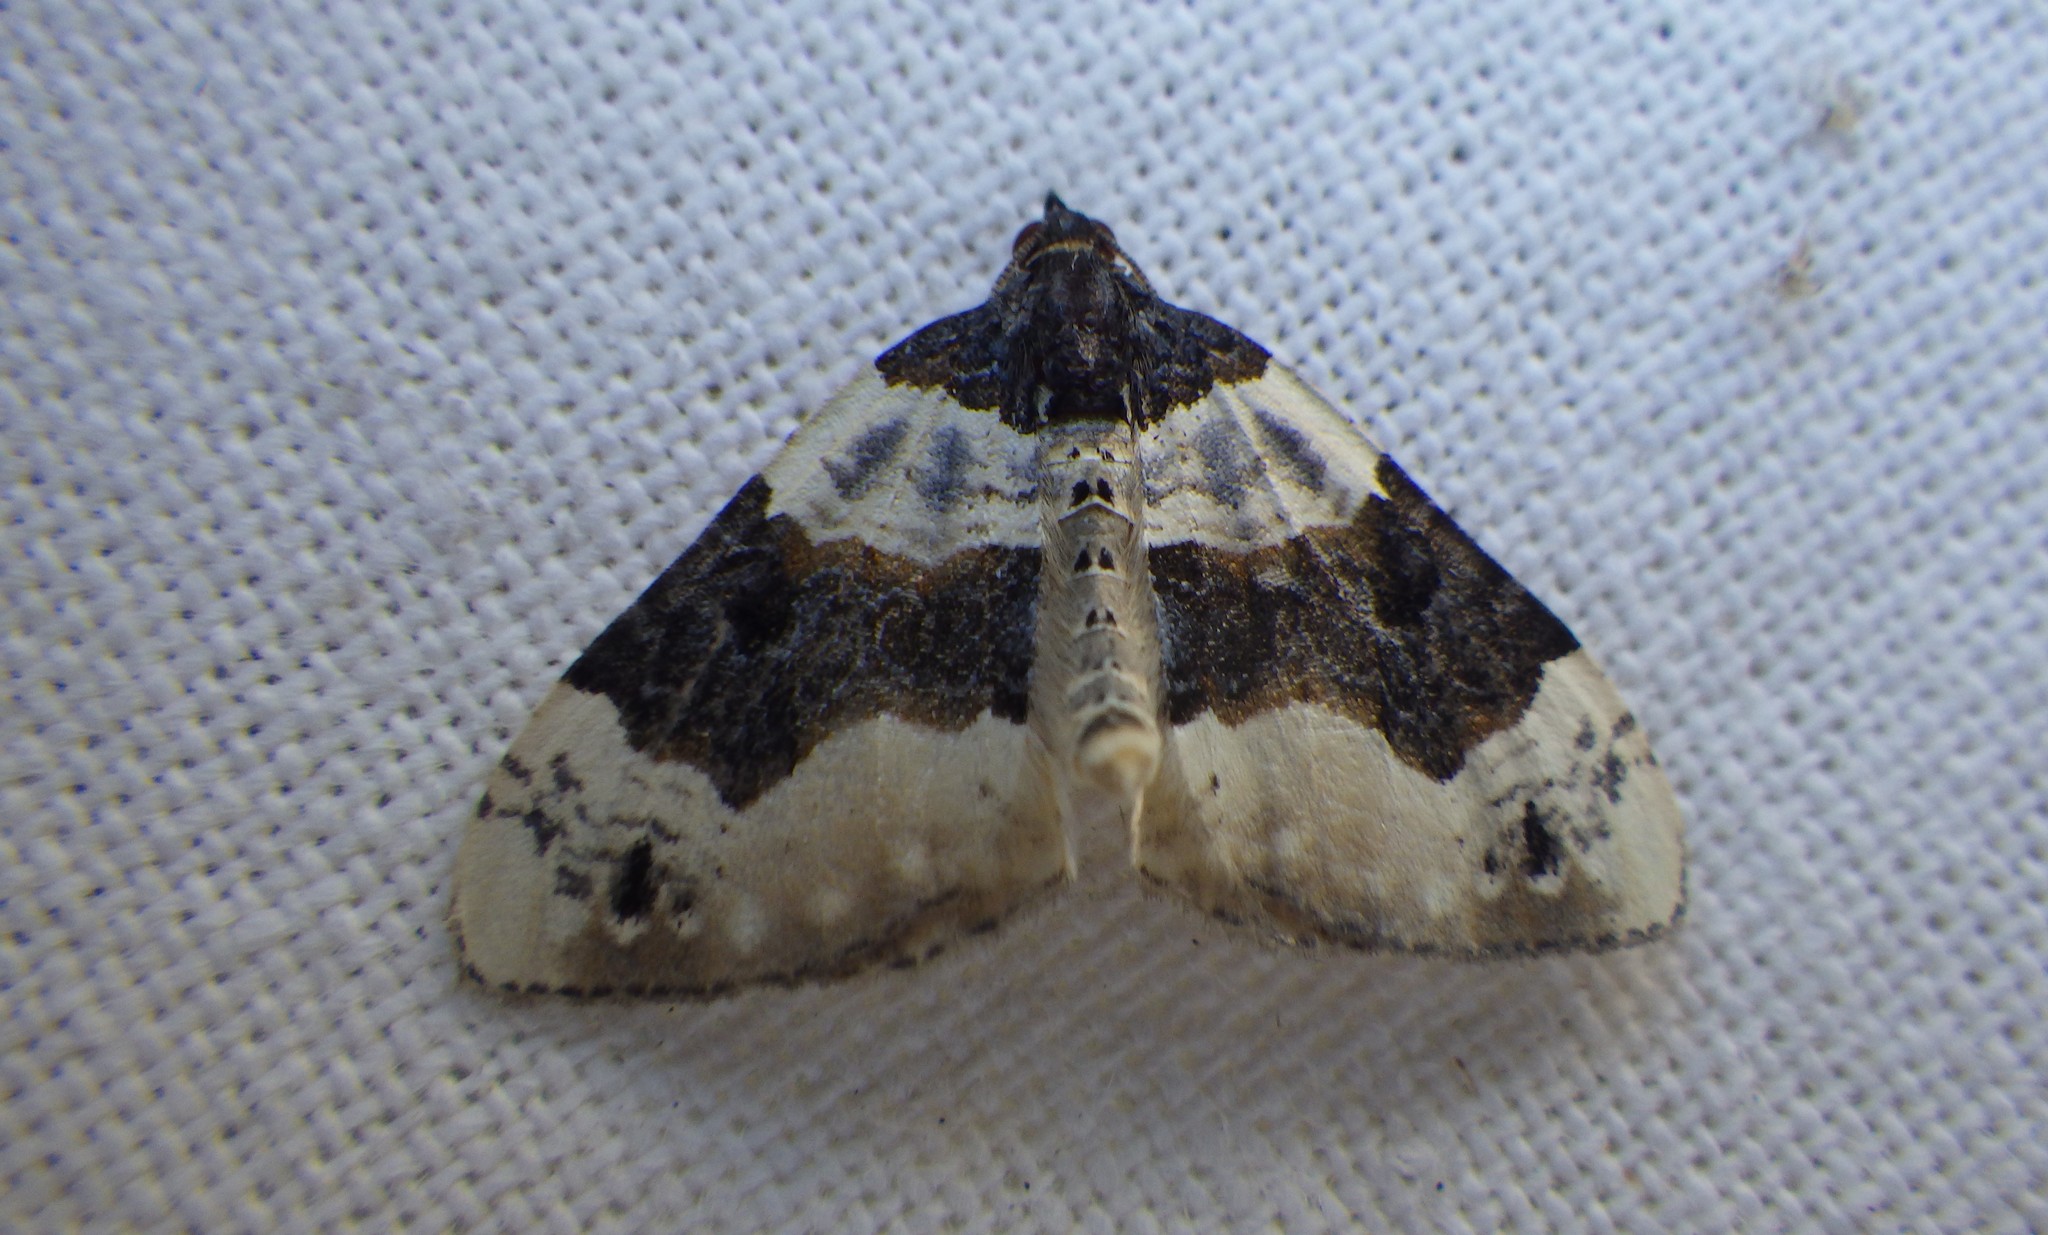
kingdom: Animalia
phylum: Arthropoda
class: Insecta
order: Lepidoptera
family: Geometridae
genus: Cosmorhoe
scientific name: Cosmorhoe ocellata
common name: Purple bar
